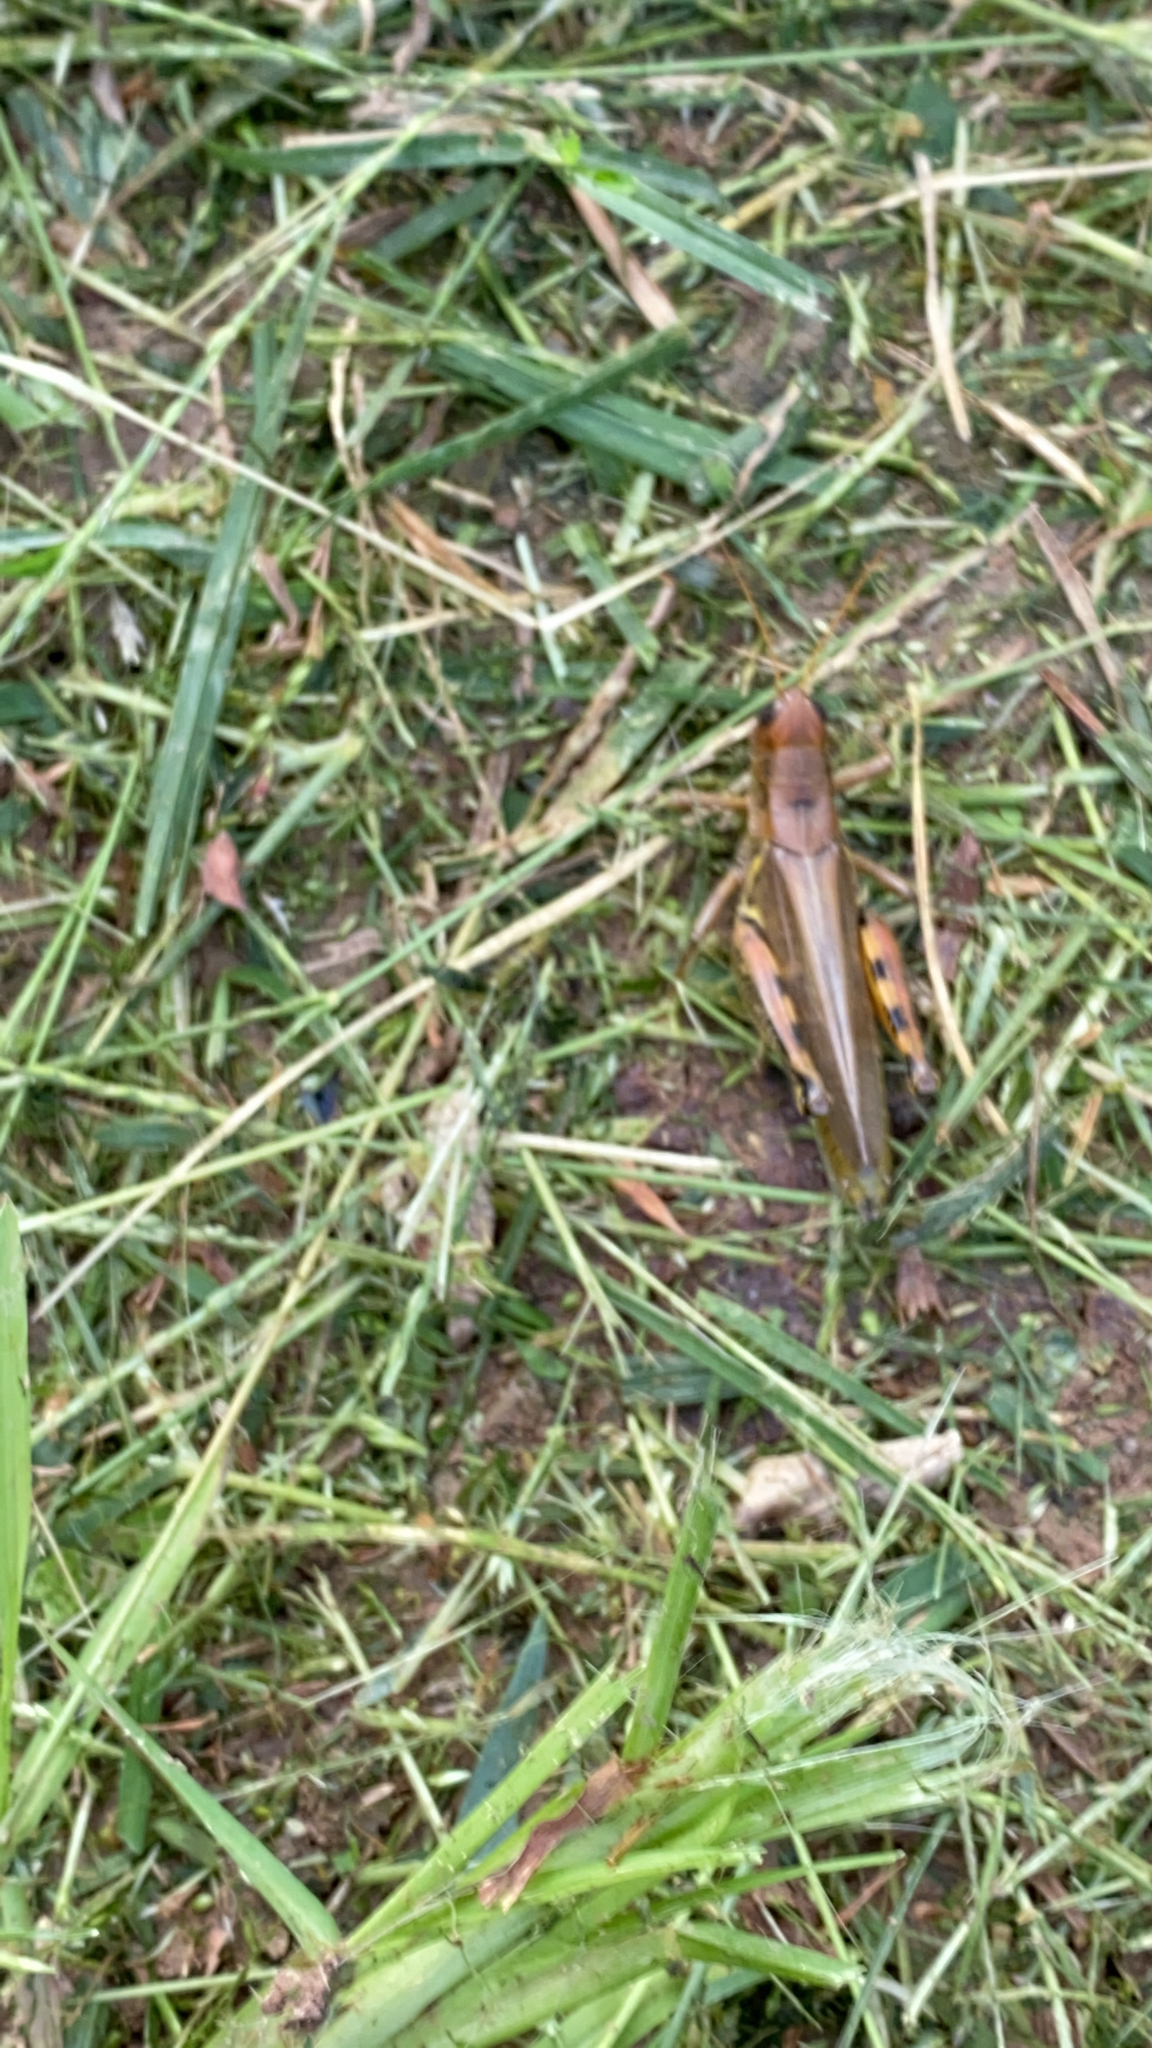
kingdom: Animalia
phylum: Arthropoda
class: Insecta
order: Orthoptera
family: Acrididae
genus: Melanoplus
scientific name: Melanoplus differentialis
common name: Differential grasshopper
